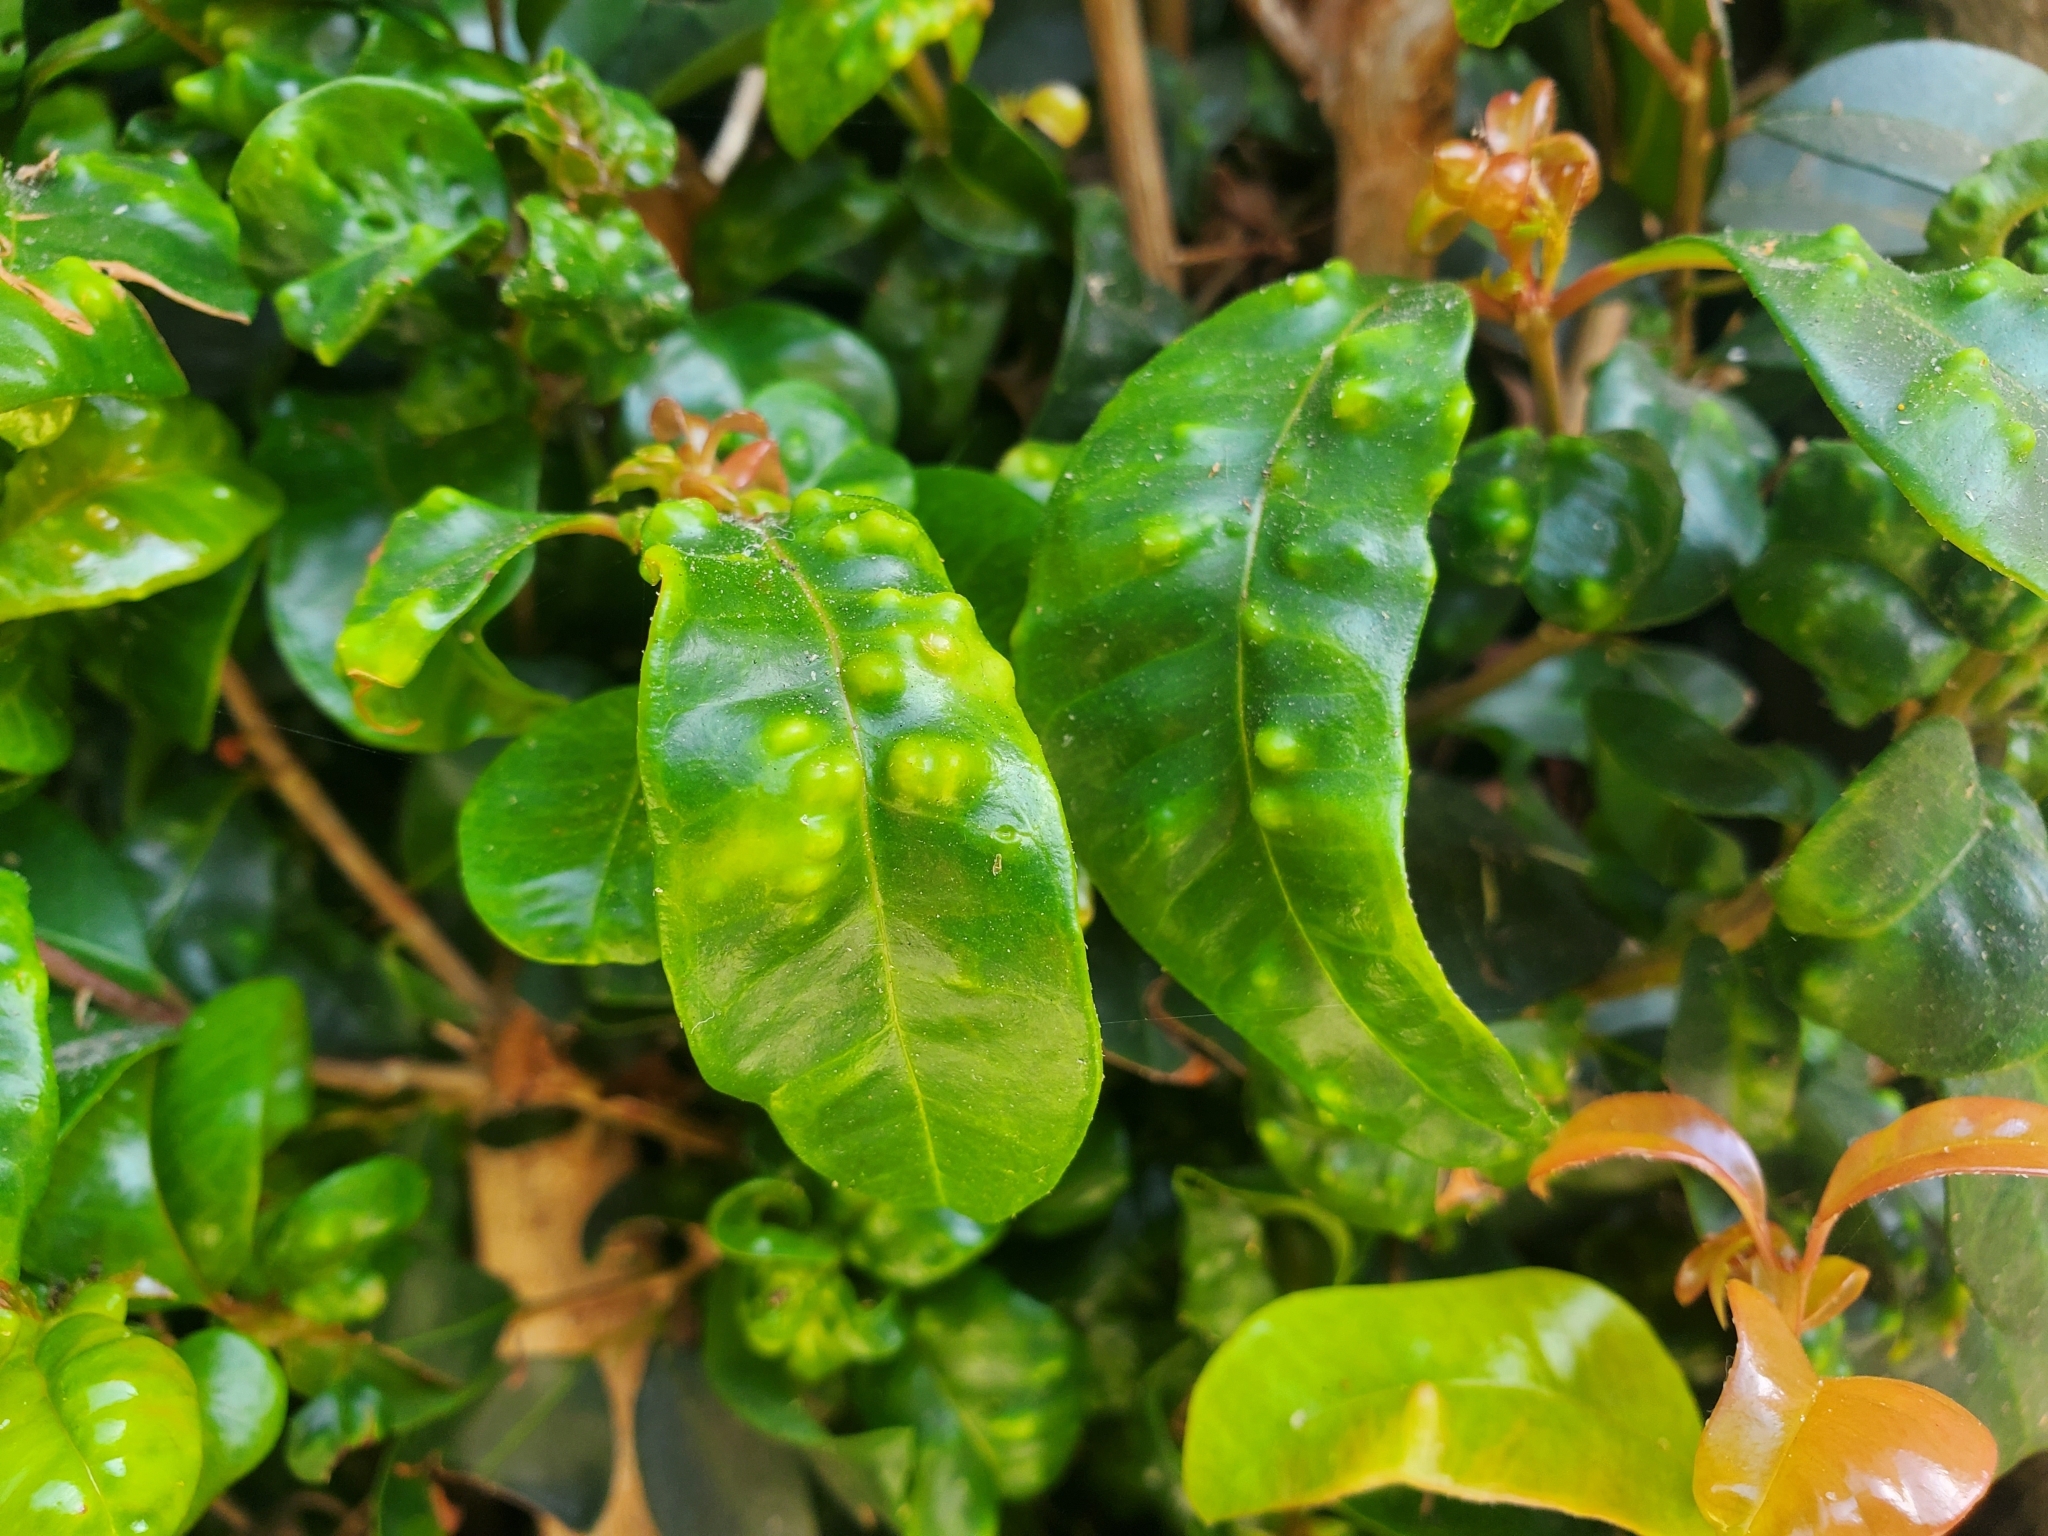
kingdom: Animalia
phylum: Arthropoda
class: Insecta
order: Hemiptera
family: Triozidae
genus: Trioza
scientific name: Trioza adventicia
